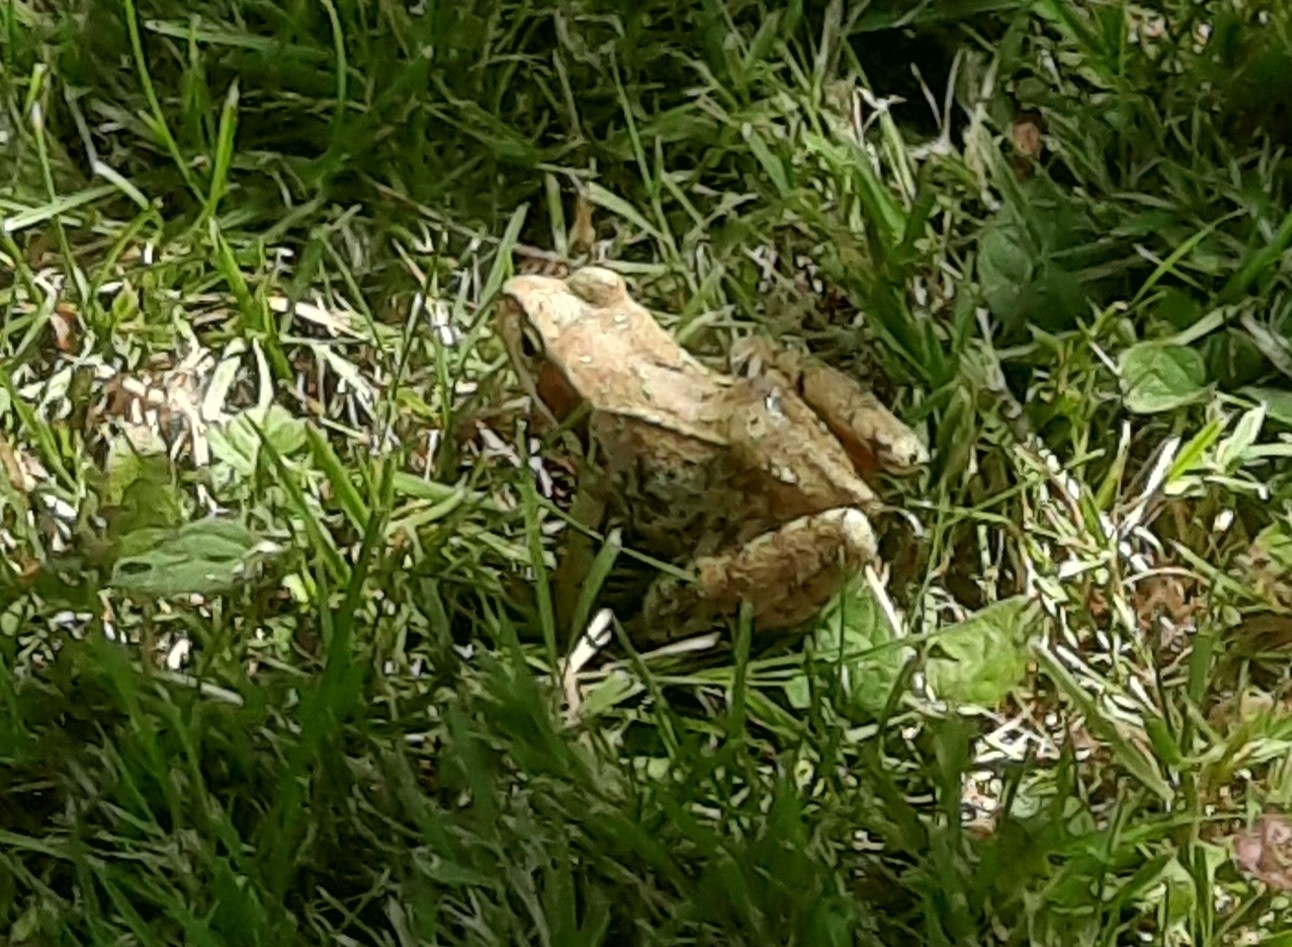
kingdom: Animalia
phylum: Chordata
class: Amphibia
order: Anura
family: Ranidae
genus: Rana
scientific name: Rana temporaria
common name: Common frog
